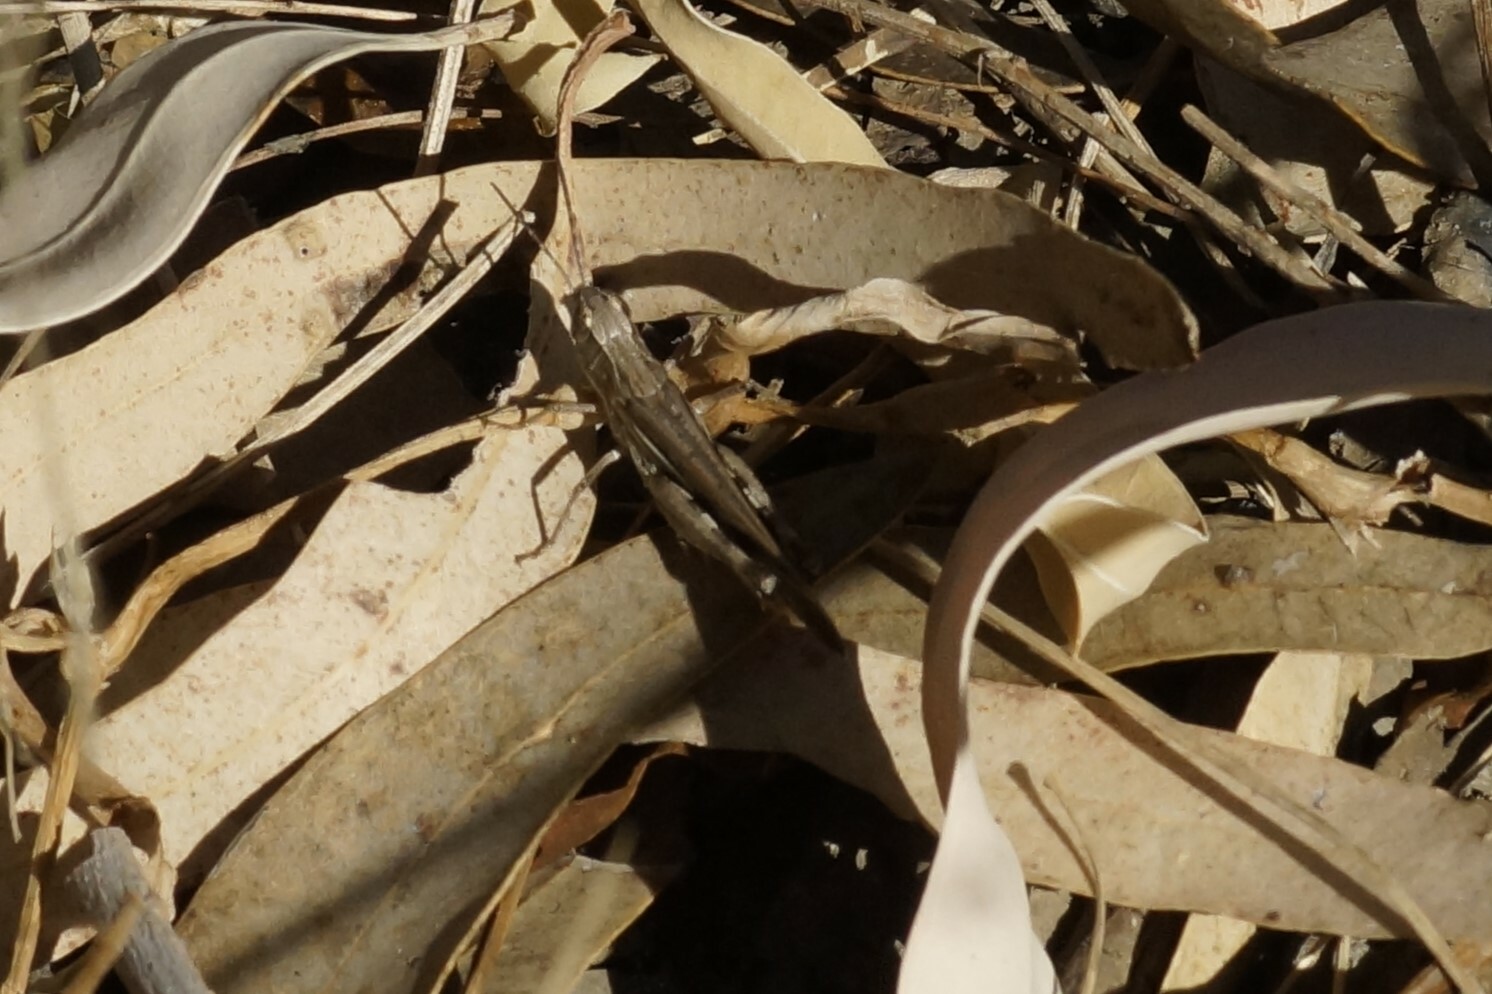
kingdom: Animalia
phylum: Arthropoda
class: Insecta
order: Orthoptera
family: Acrididae
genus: Aiolopus
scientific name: Aiolopus thalassinus
